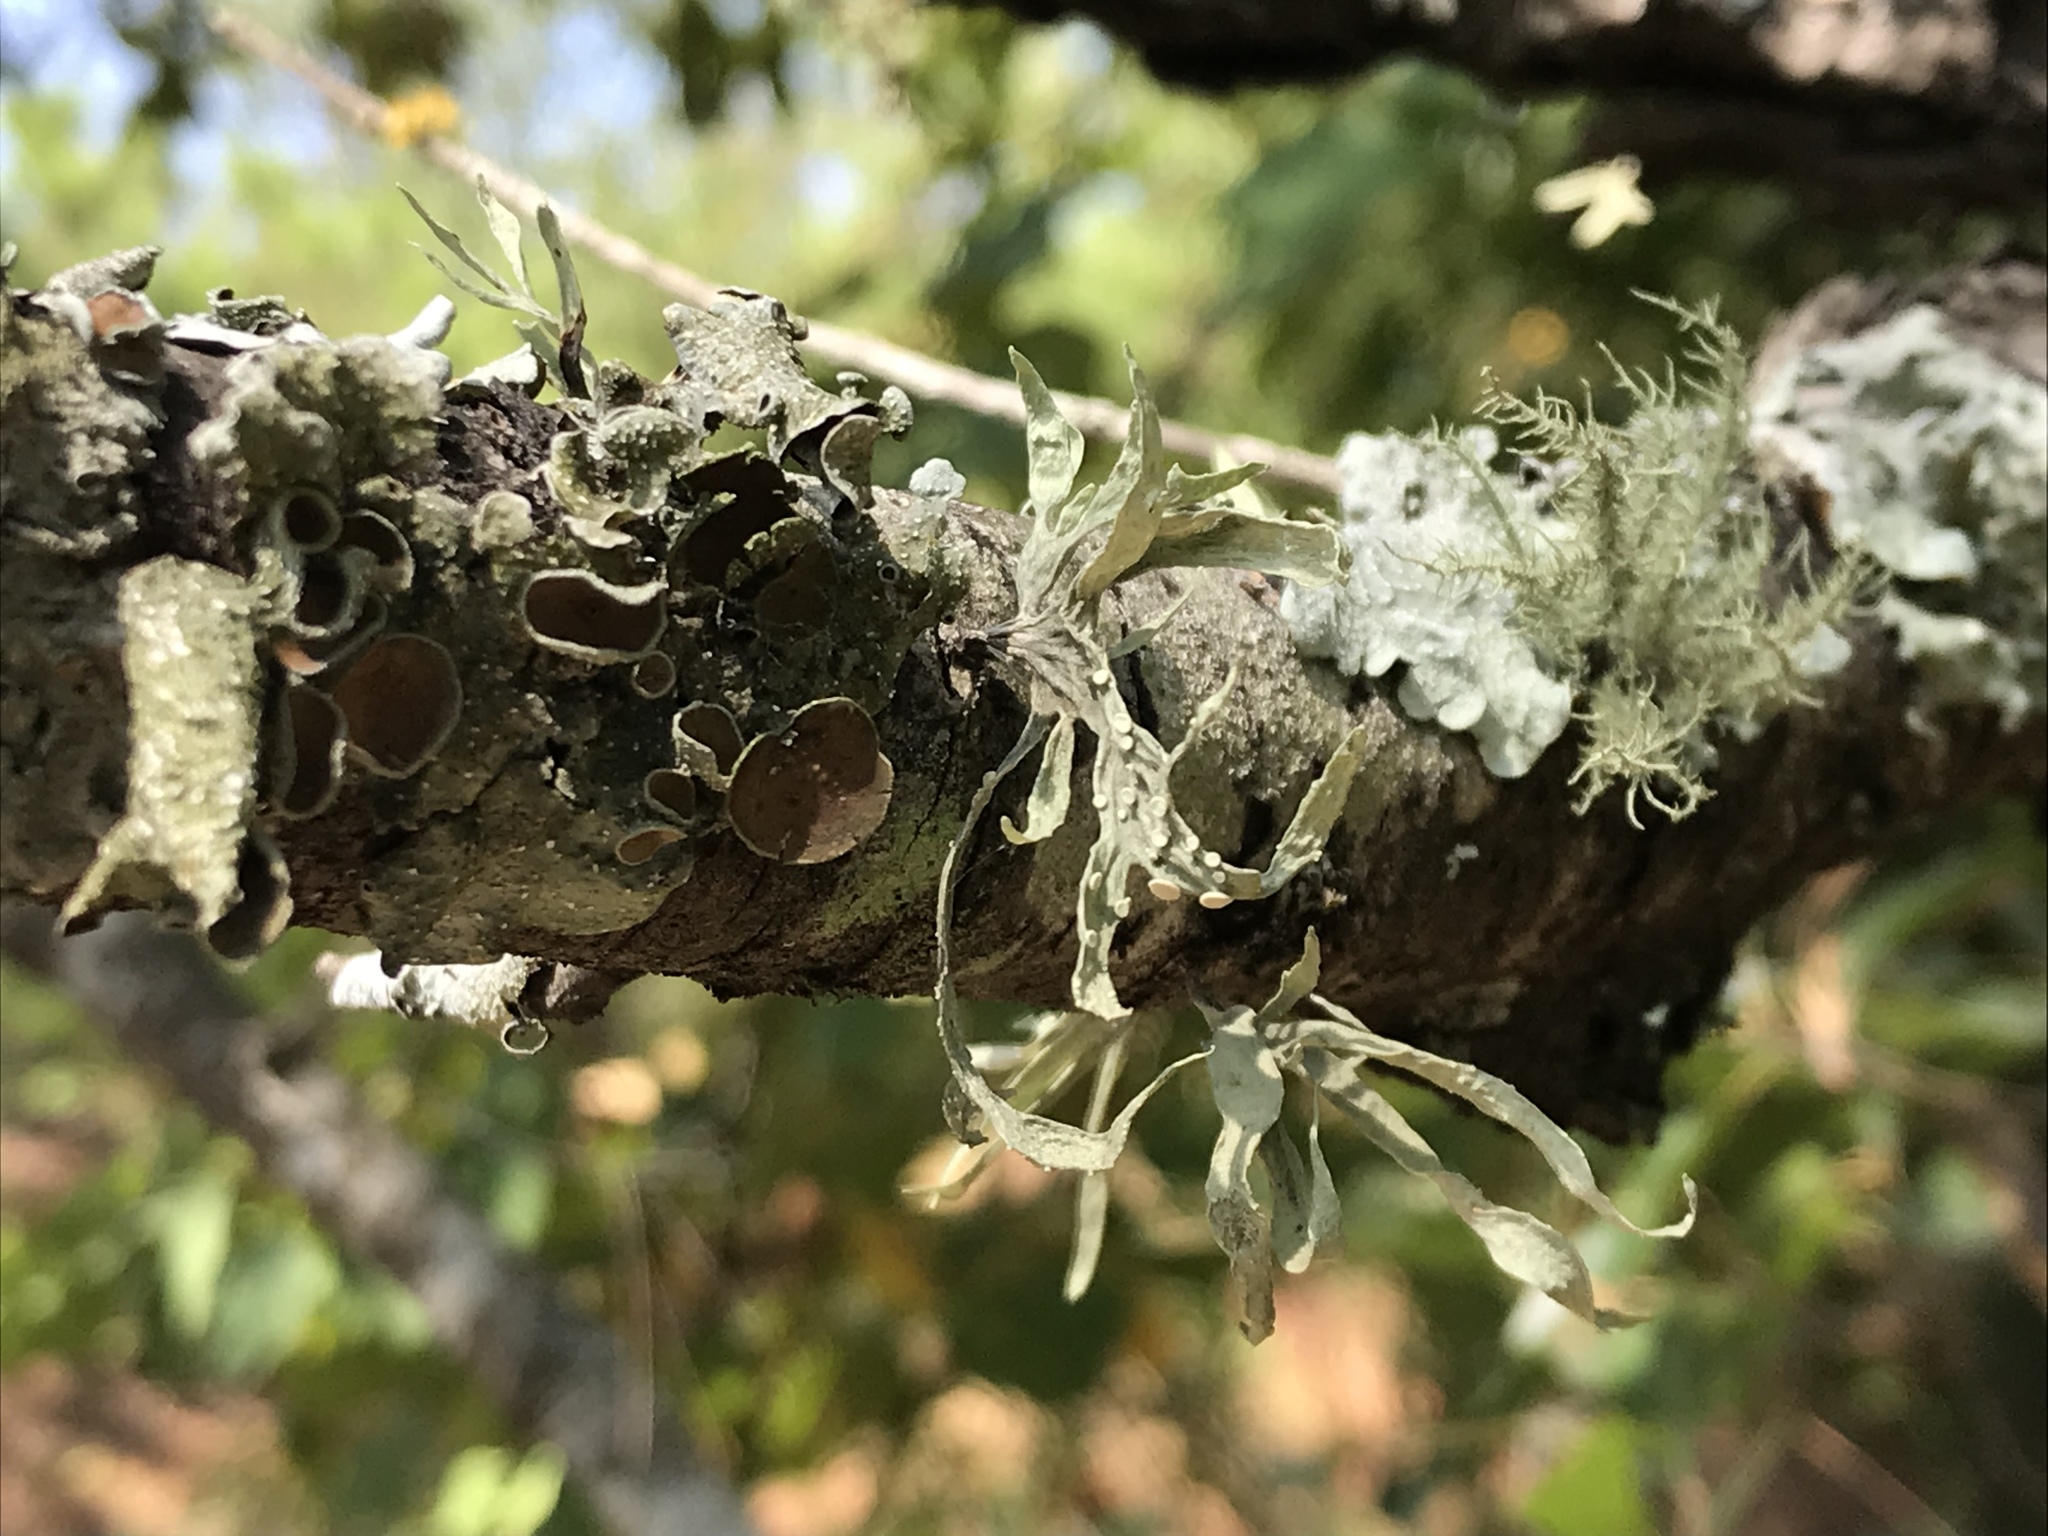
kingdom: Fungi
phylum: Ascomycota
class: Lecanoromycetes
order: Lecanorales
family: Ramalinaceae
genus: Ramalina
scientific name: Ramalina celastri
